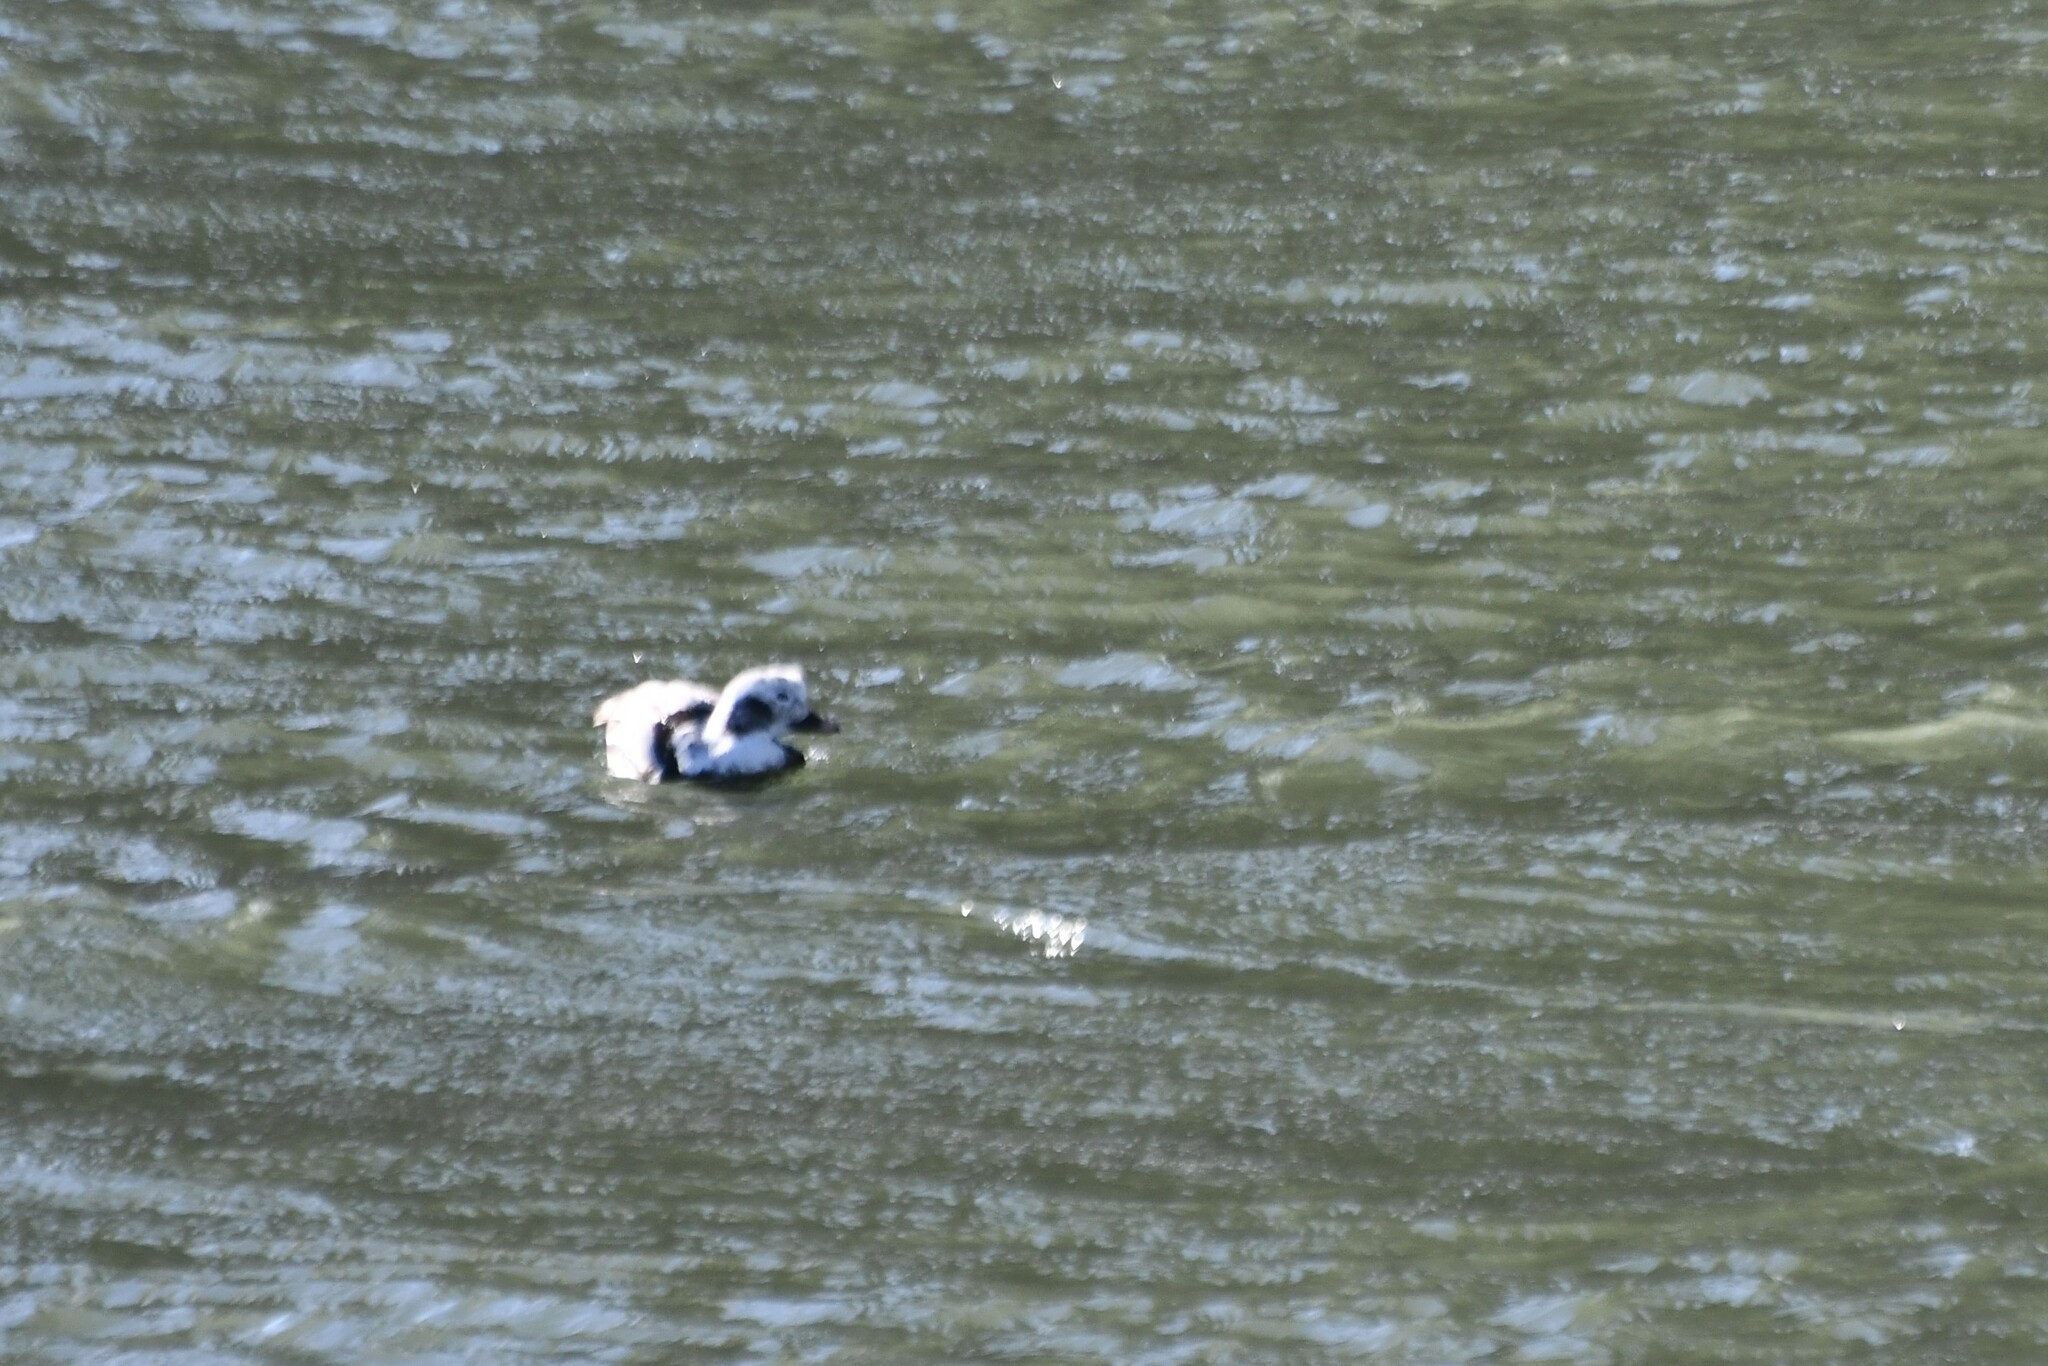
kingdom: Animalia
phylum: Chordata
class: Aves
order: Anseriformes
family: Anatidae
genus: Clangula
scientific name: Clangula hyemalis
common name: Long-tailed duck
